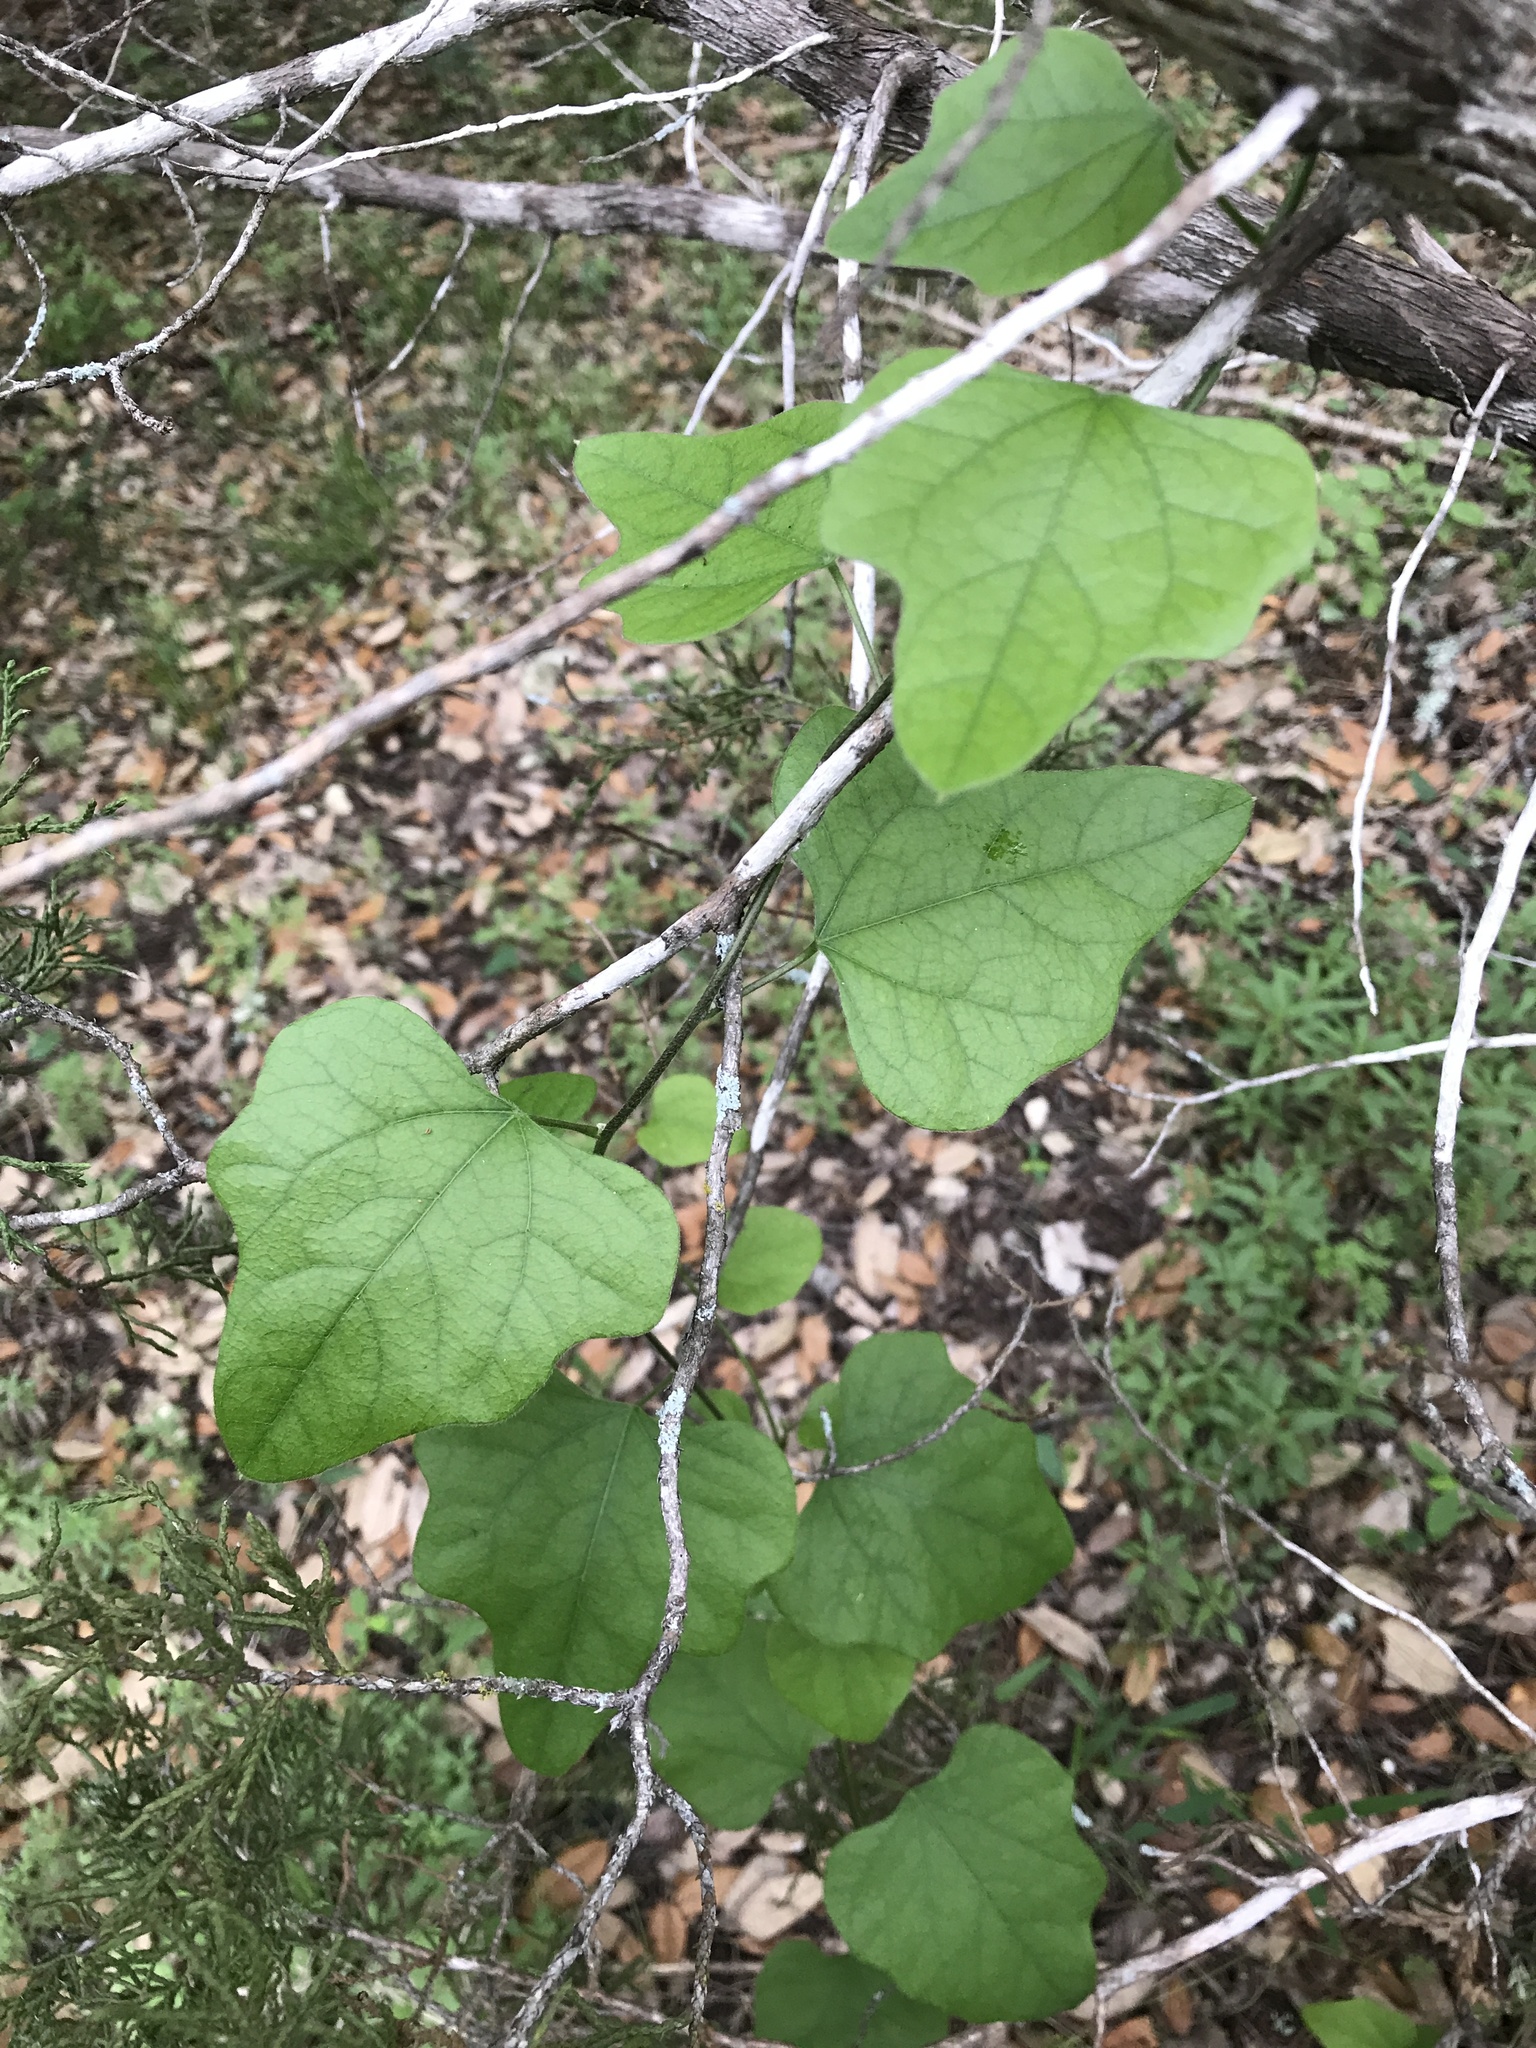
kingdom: Plantae
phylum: Tracheophyta
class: Magnoliopsida
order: Ranunculales
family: Menispermaceae
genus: Cocculus
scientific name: Cocculus carolinus
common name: Carolina moonseed
